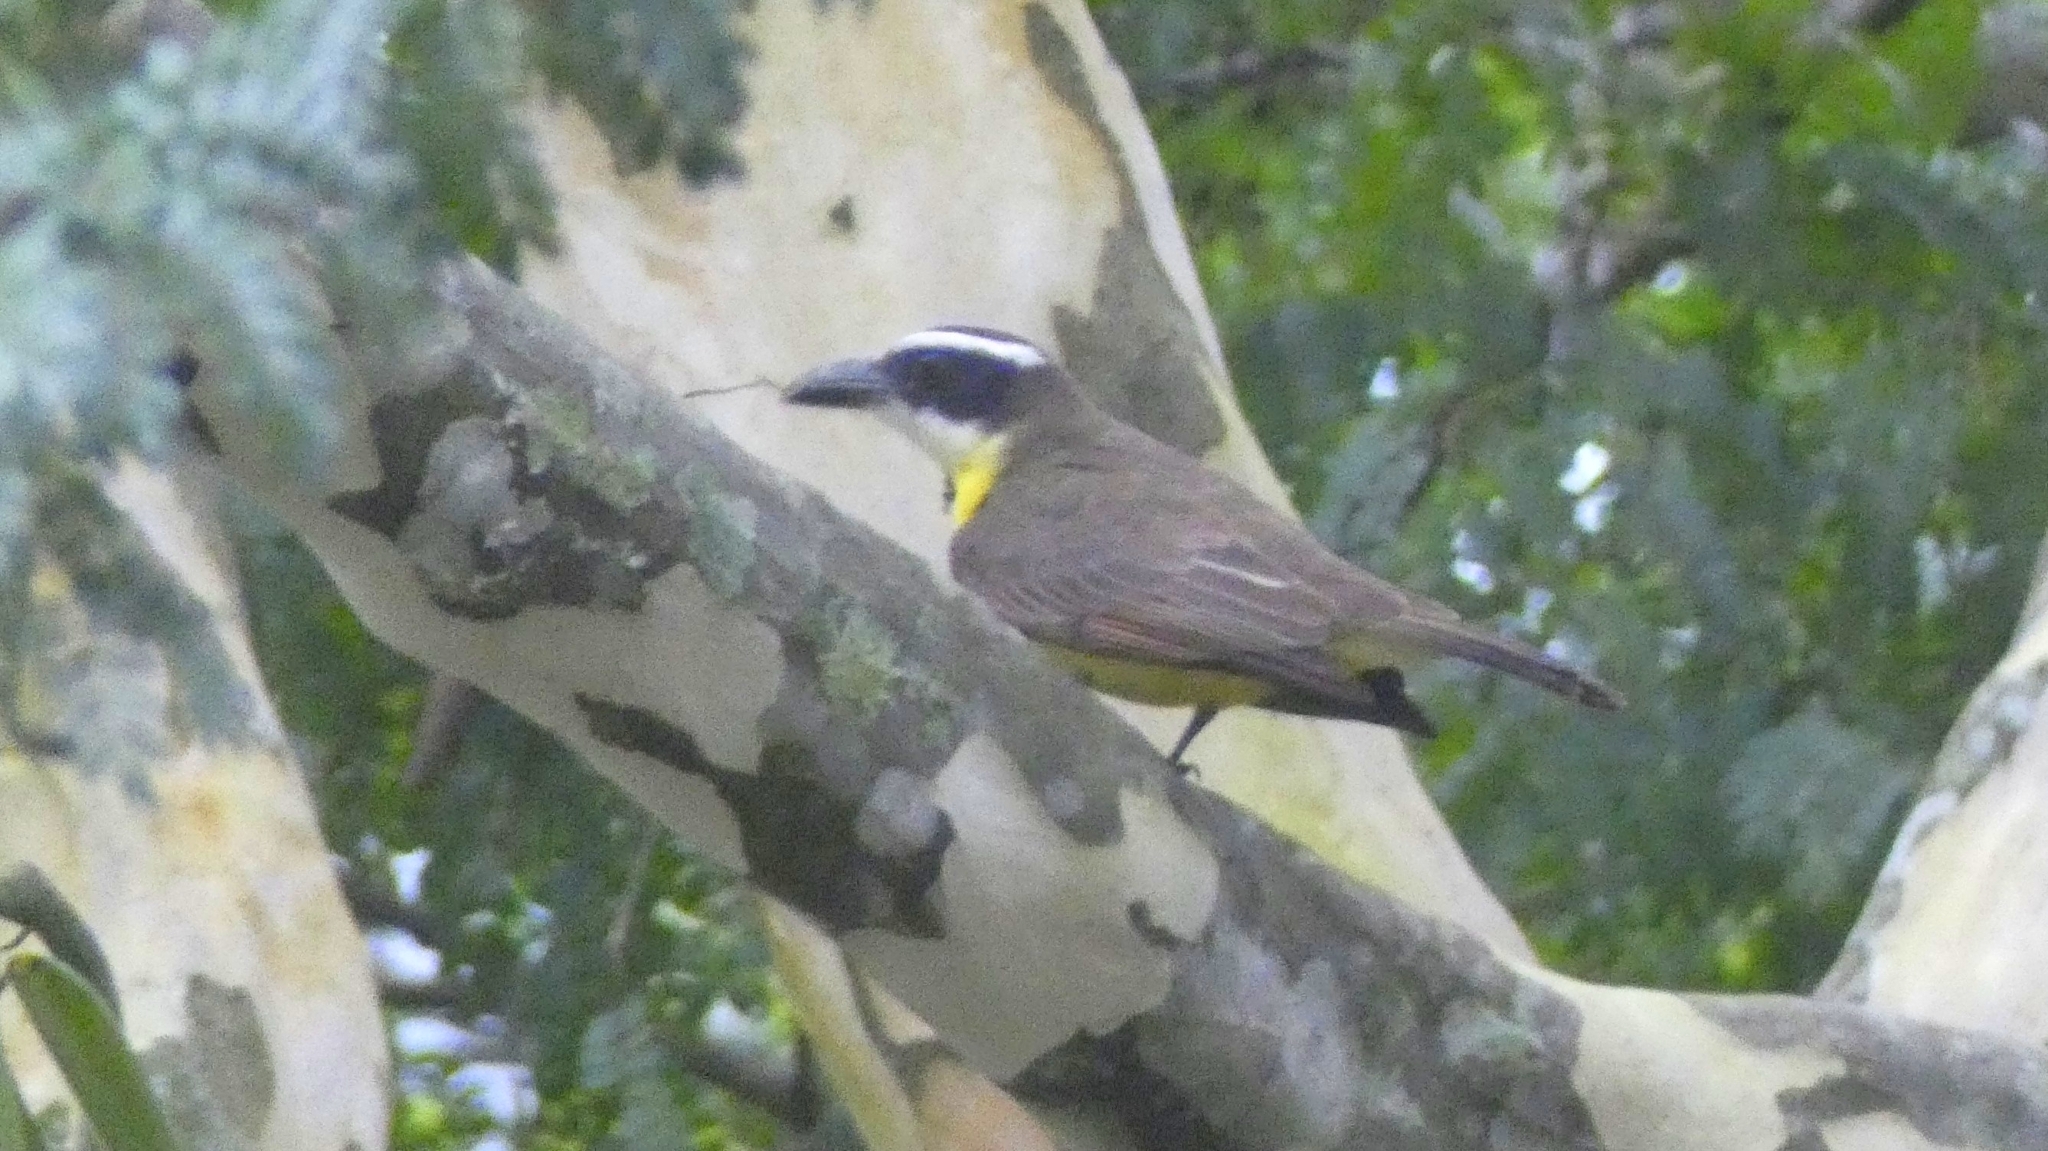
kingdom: Animalia
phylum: Chordata
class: Aves
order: Passeriformes
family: Tyrannidae
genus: Megarynchus
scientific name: Megarynchus pitangua
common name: Boat-billed flycatcher
